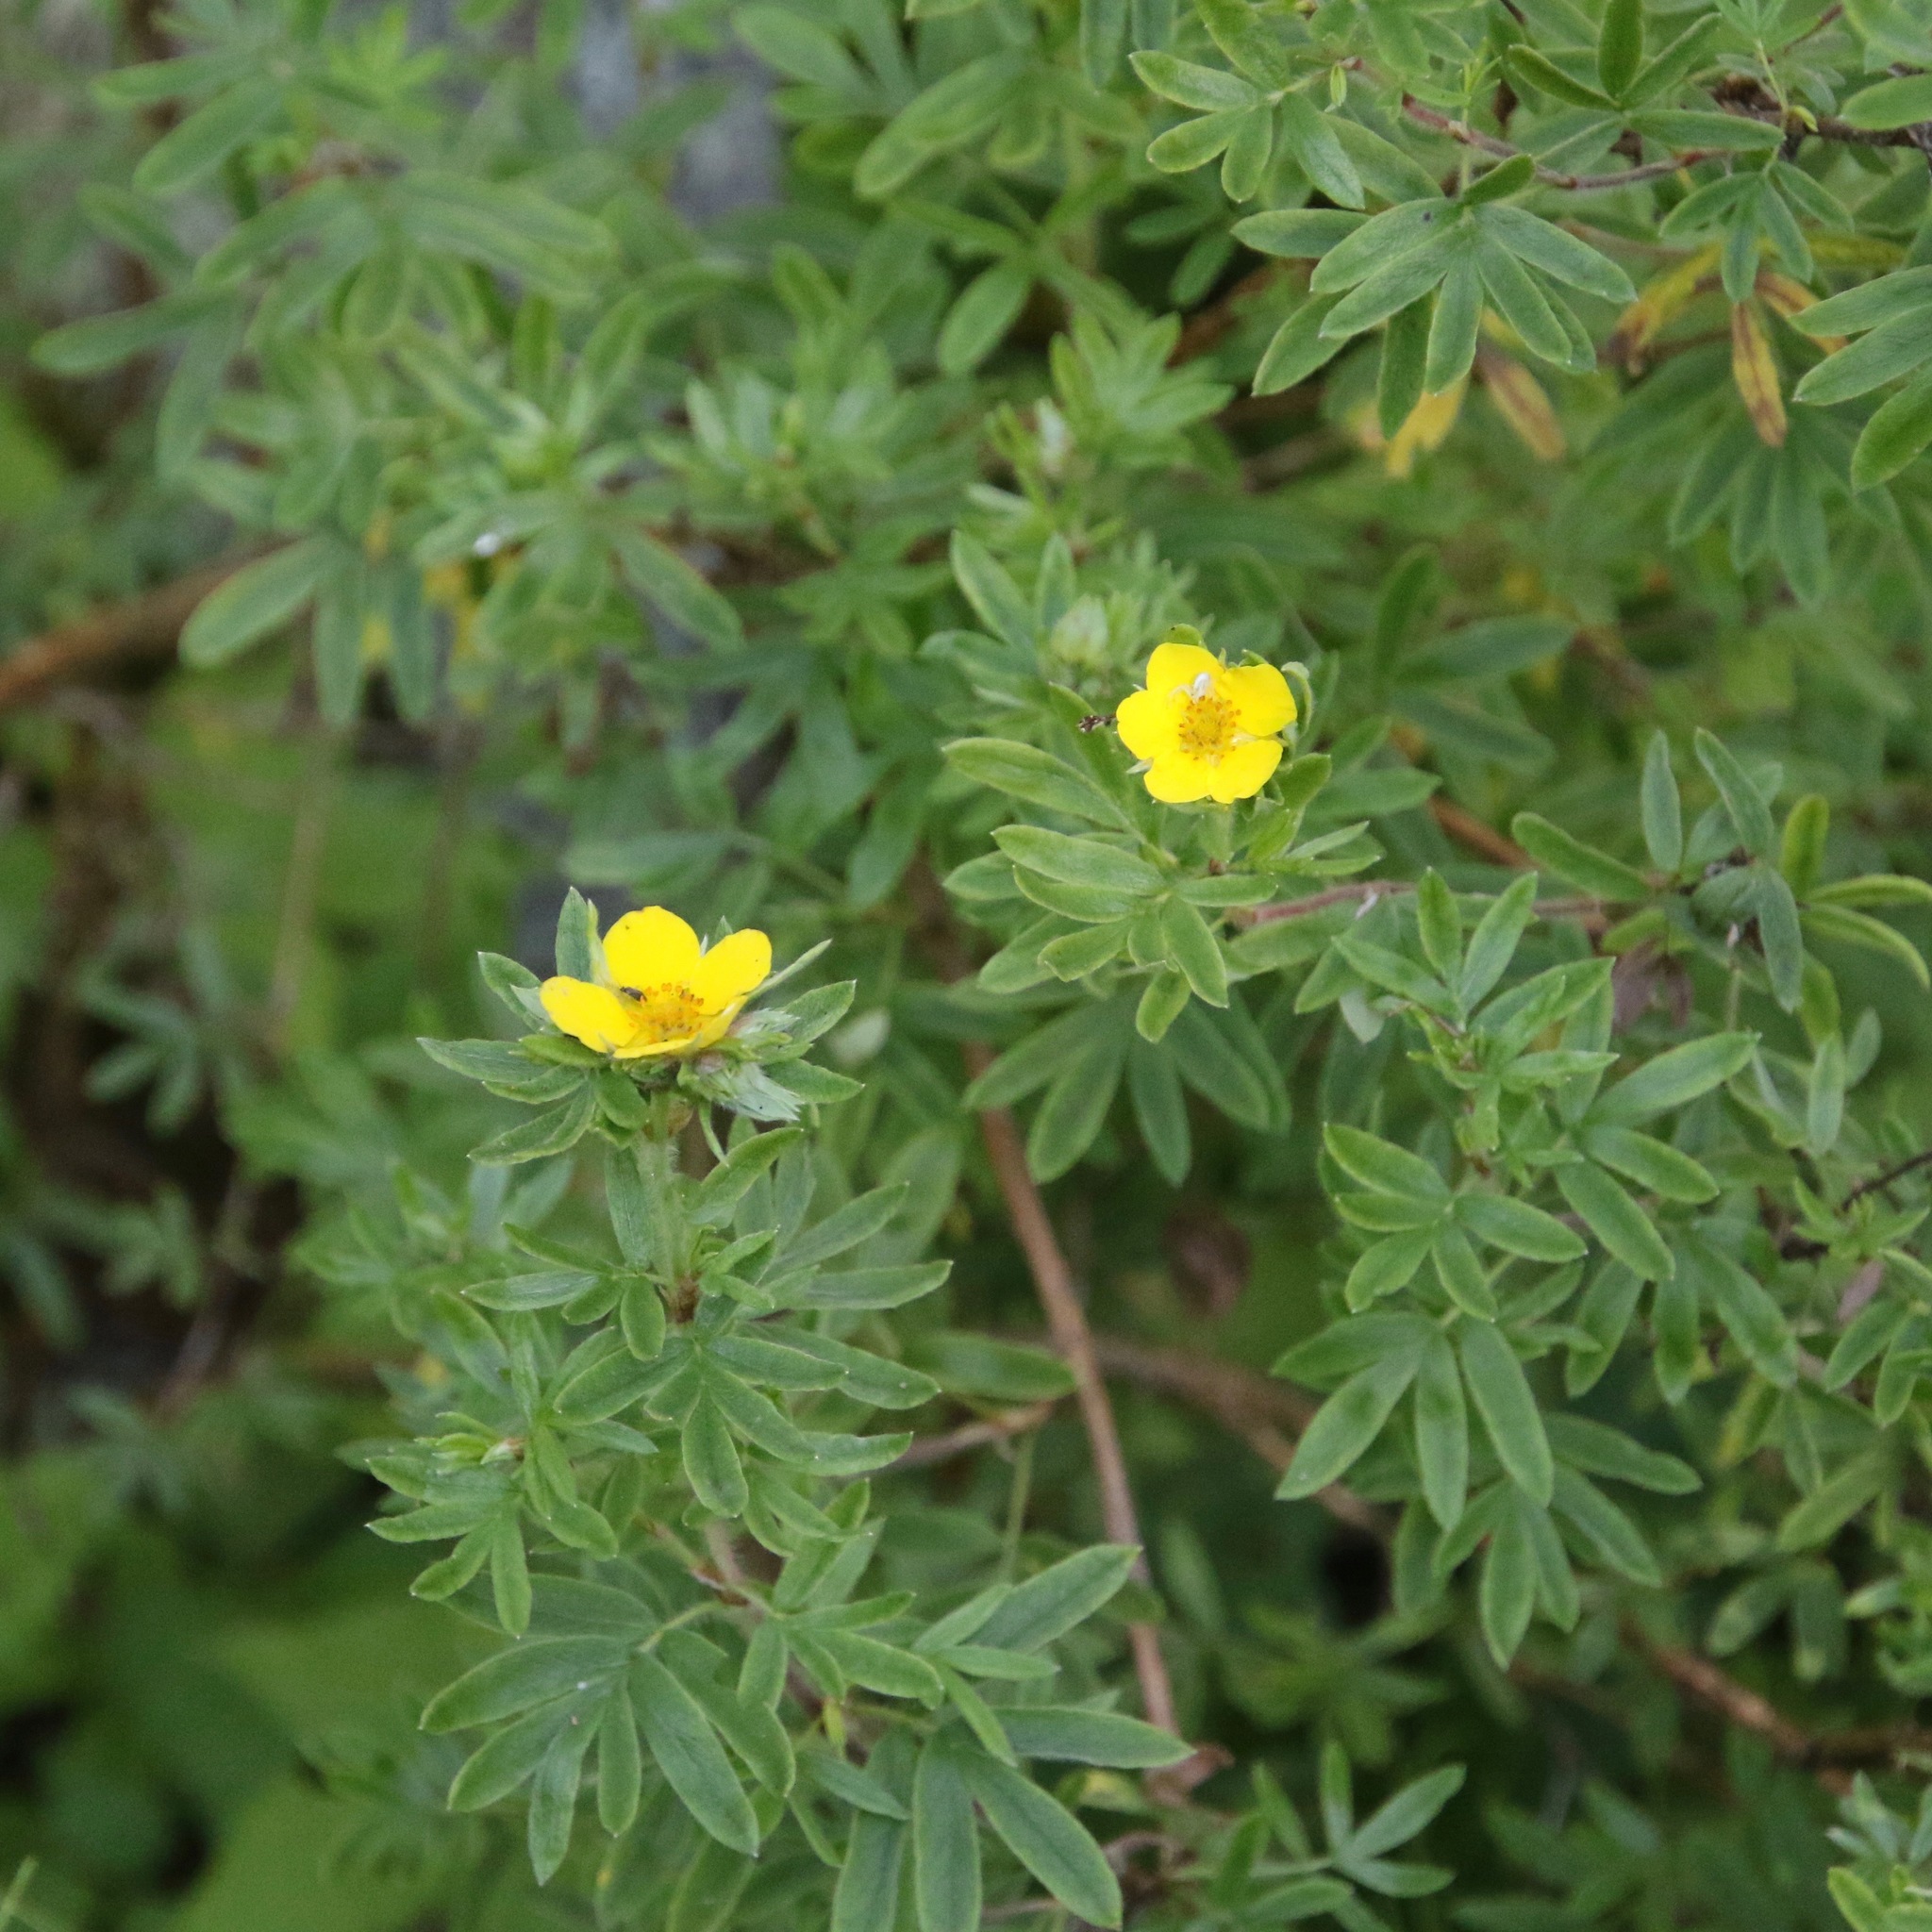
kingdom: Plantae
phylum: Tracheophyta
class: Magnoliopsida
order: Rosales
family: Rosaceae
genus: Dasiphora
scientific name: Dasiphora fruticosa
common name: Shrubby cinquefoil
